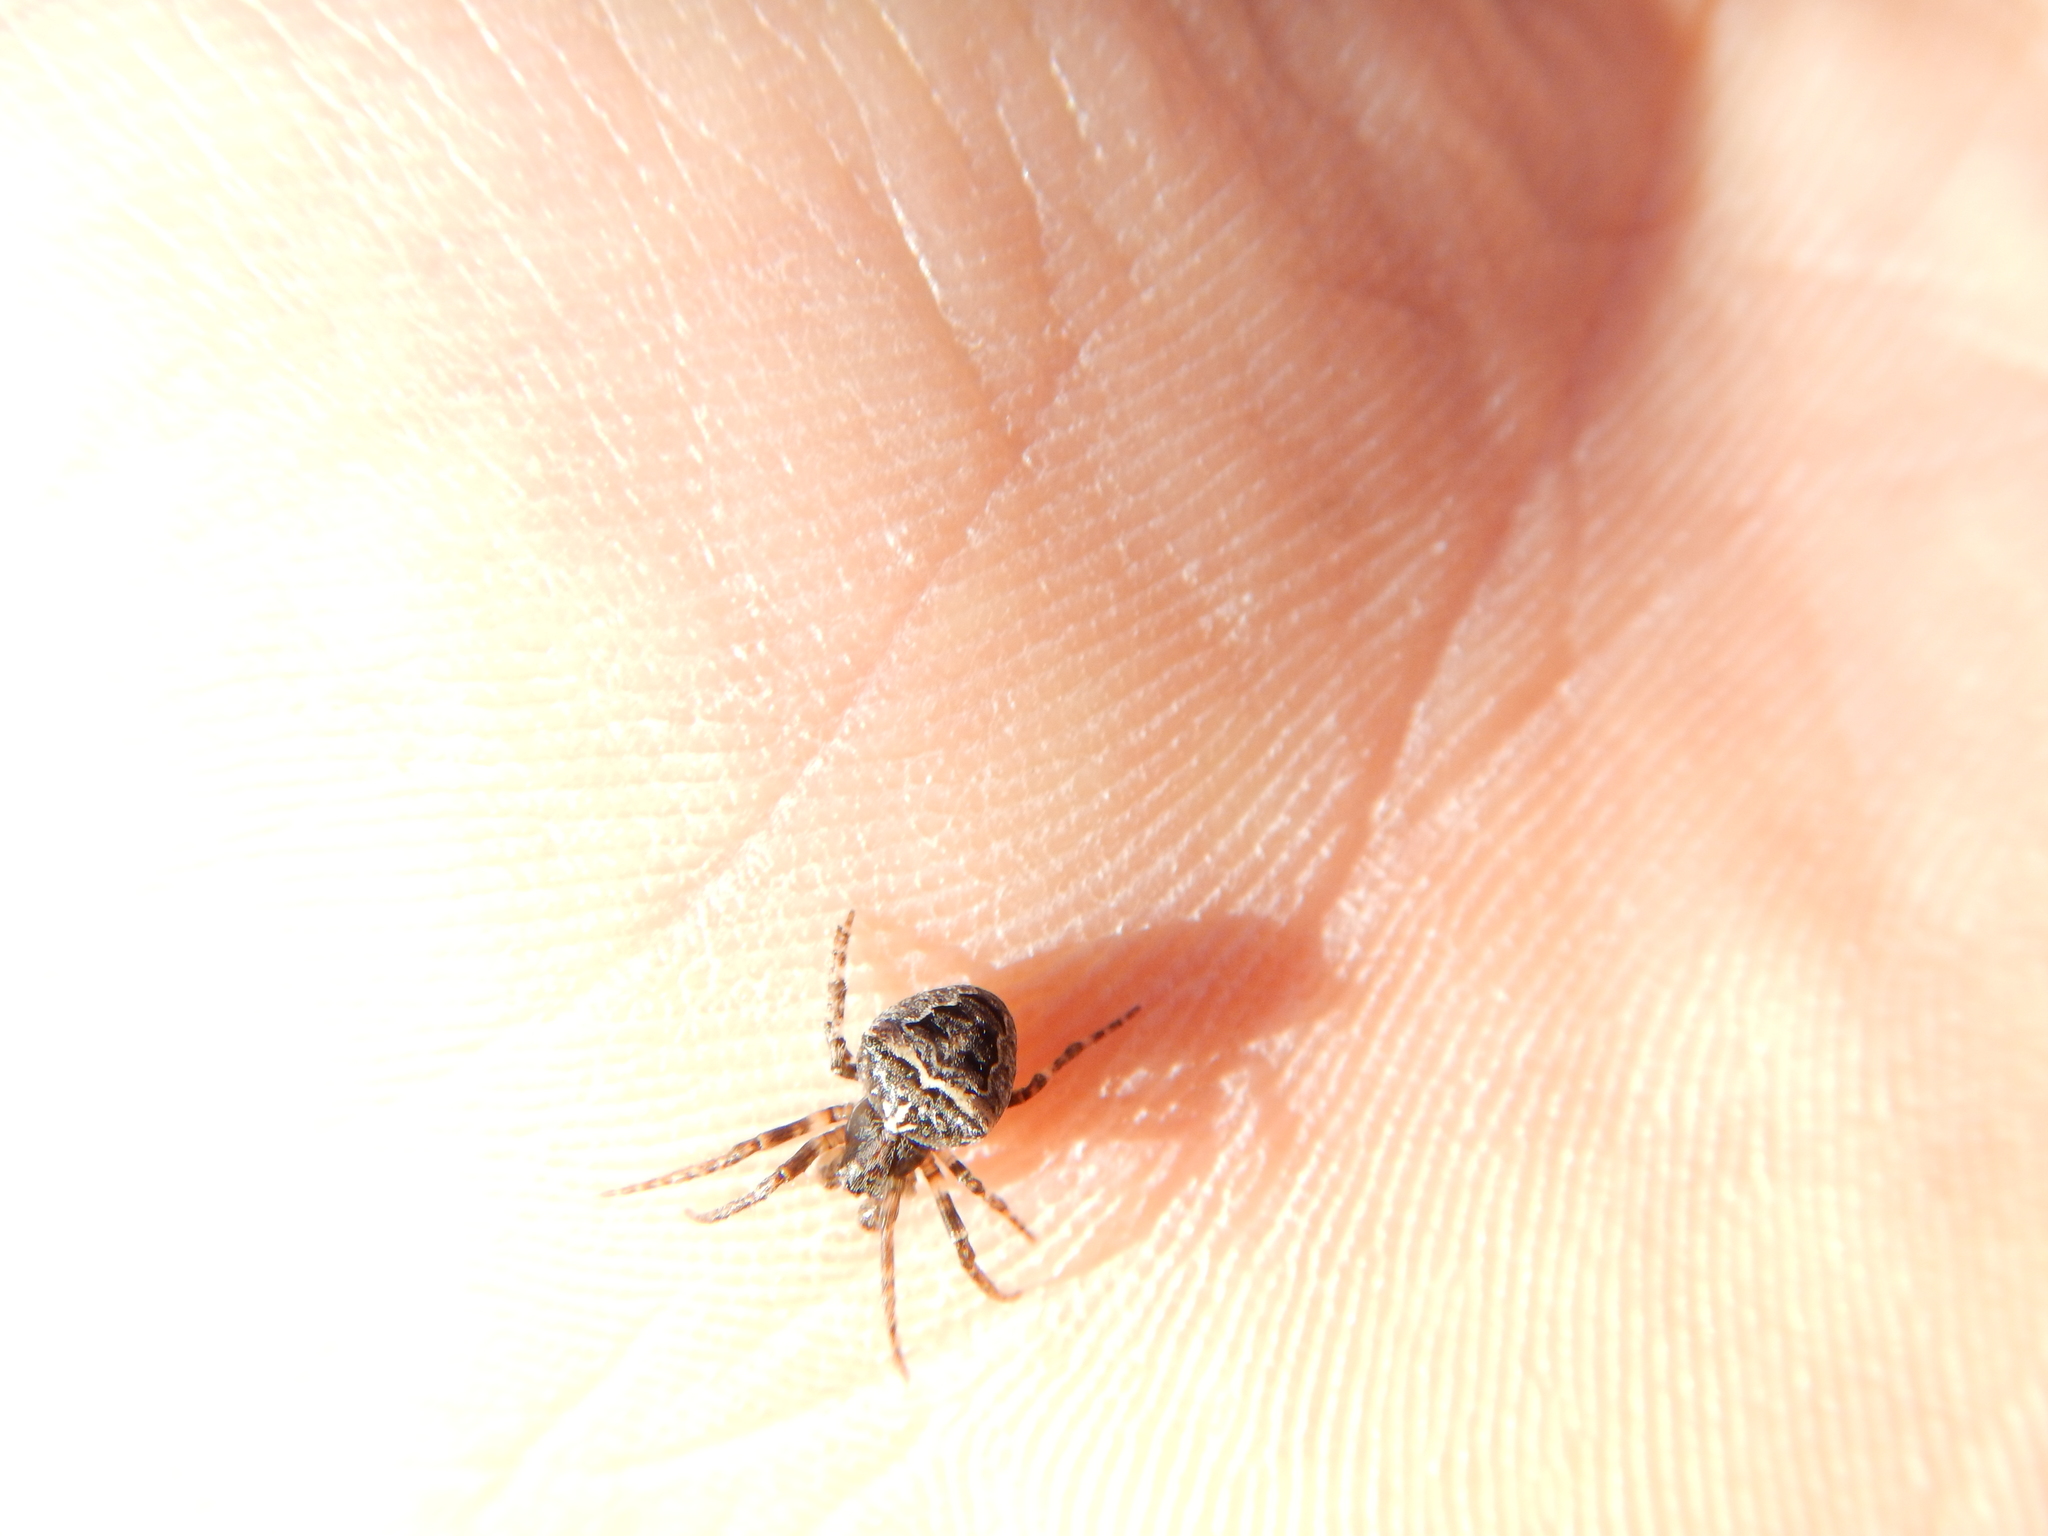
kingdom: Animalia
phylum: Arthropoda
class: Arachnida
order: Araneae
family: Araneidae
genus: Gibbaranea
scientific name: Gibbaranea bituberculata
